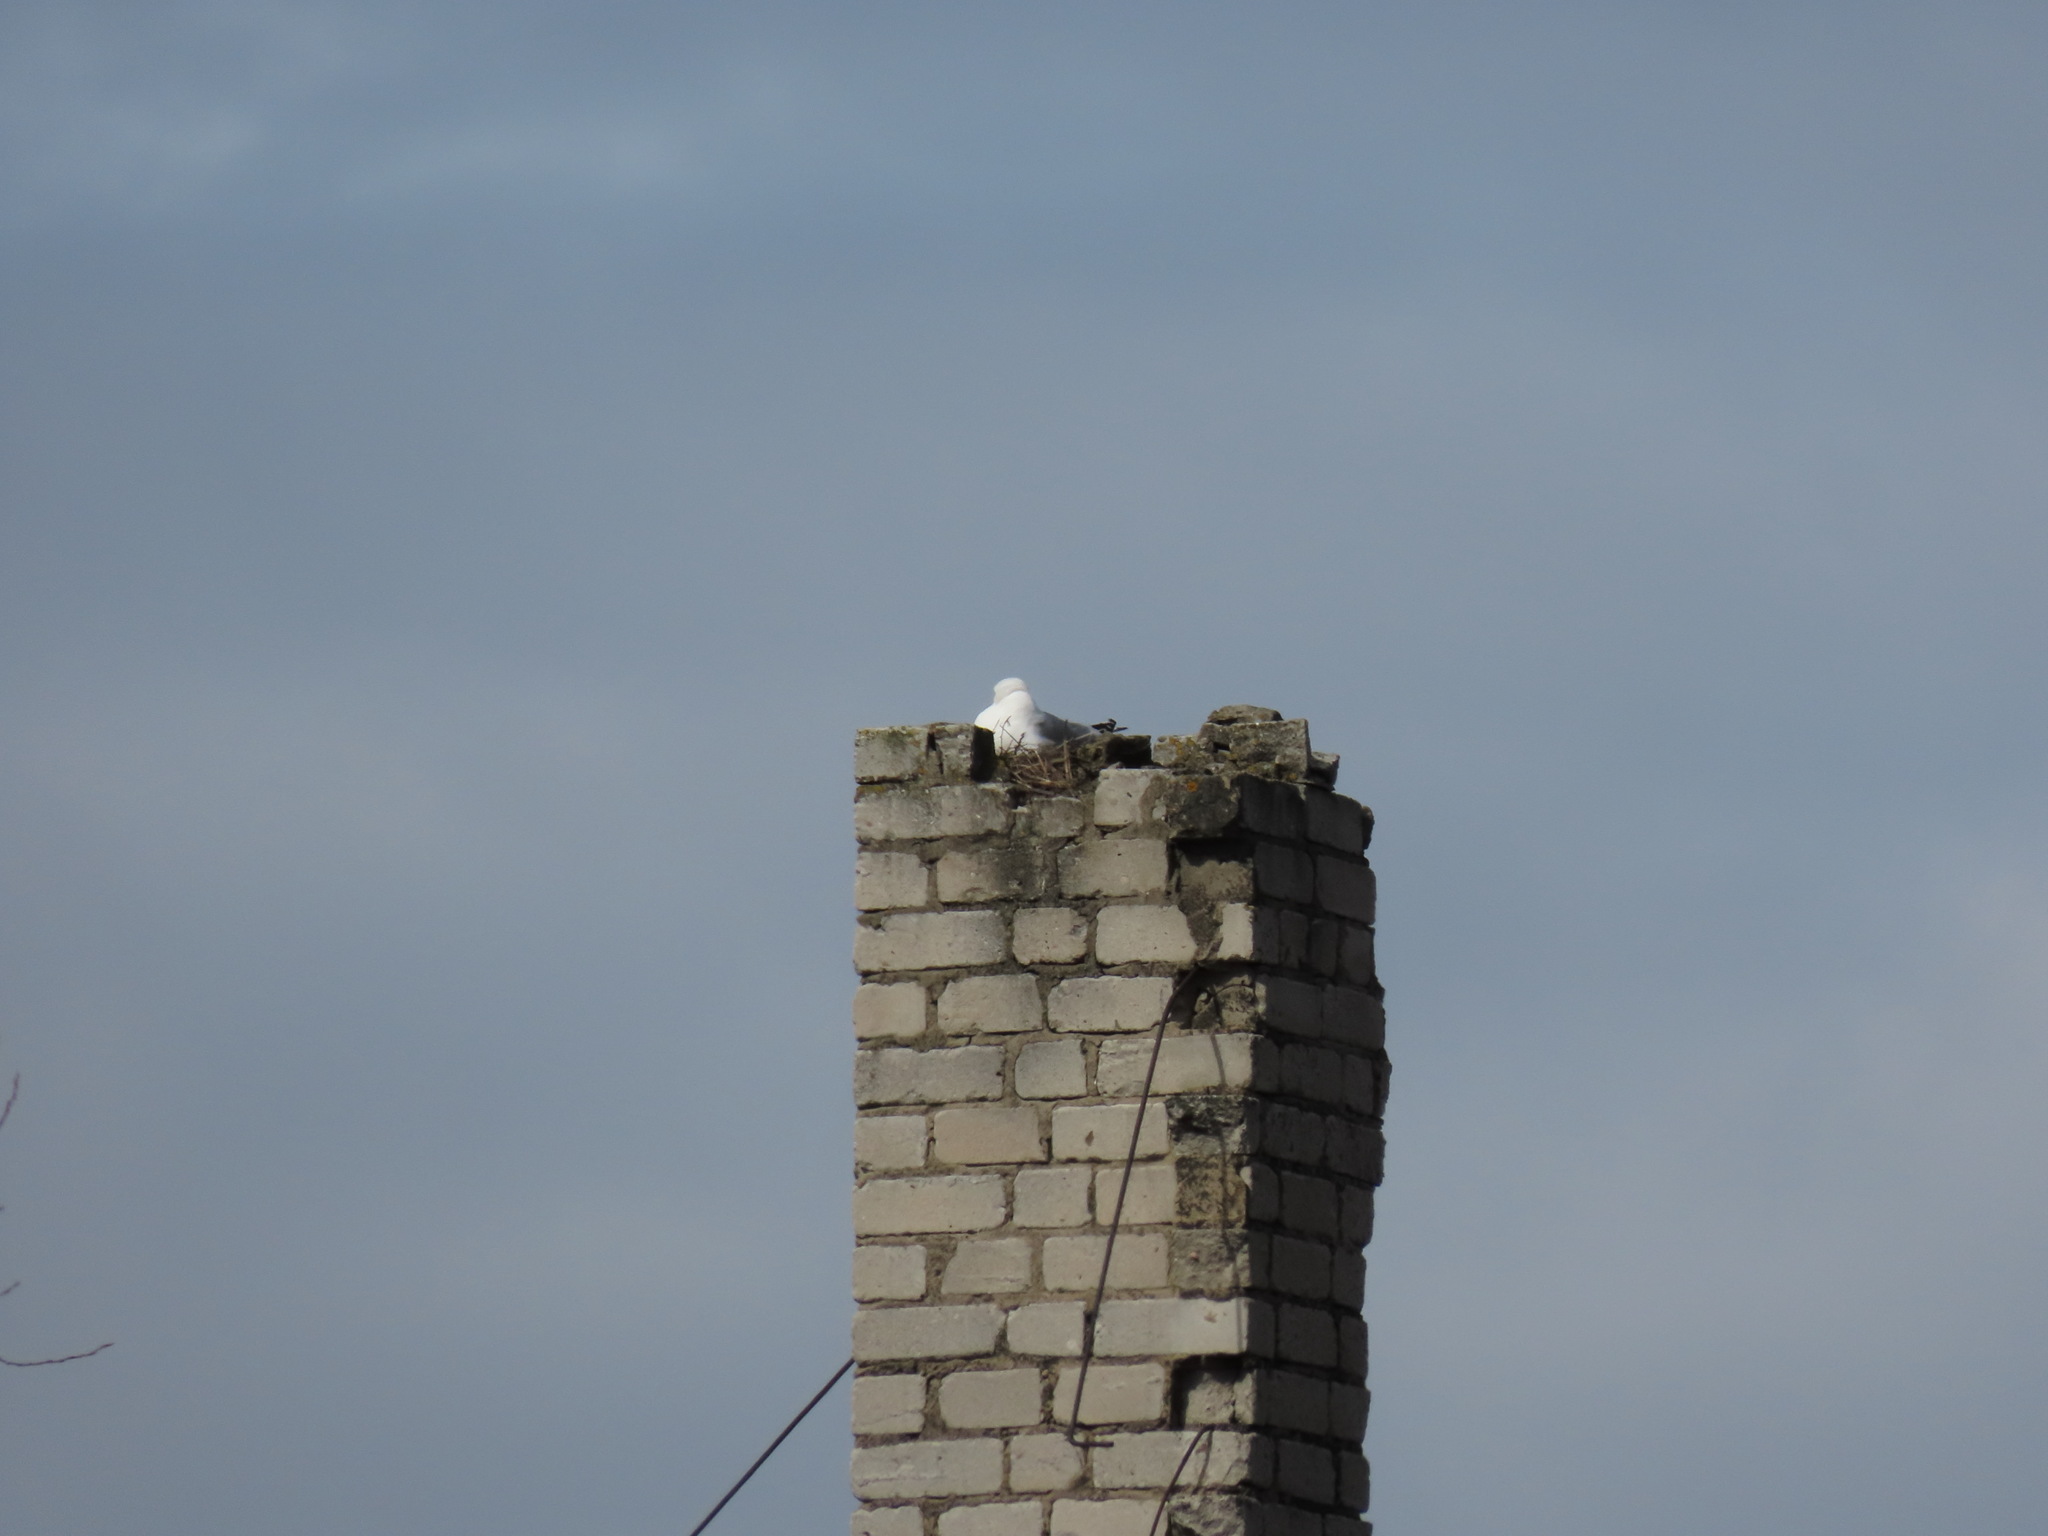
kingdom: Animalia
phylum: Chordata
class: Aves
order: Charadriiformes
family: Laridae
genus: Larus
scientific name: Larus canus
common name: Mew gull
